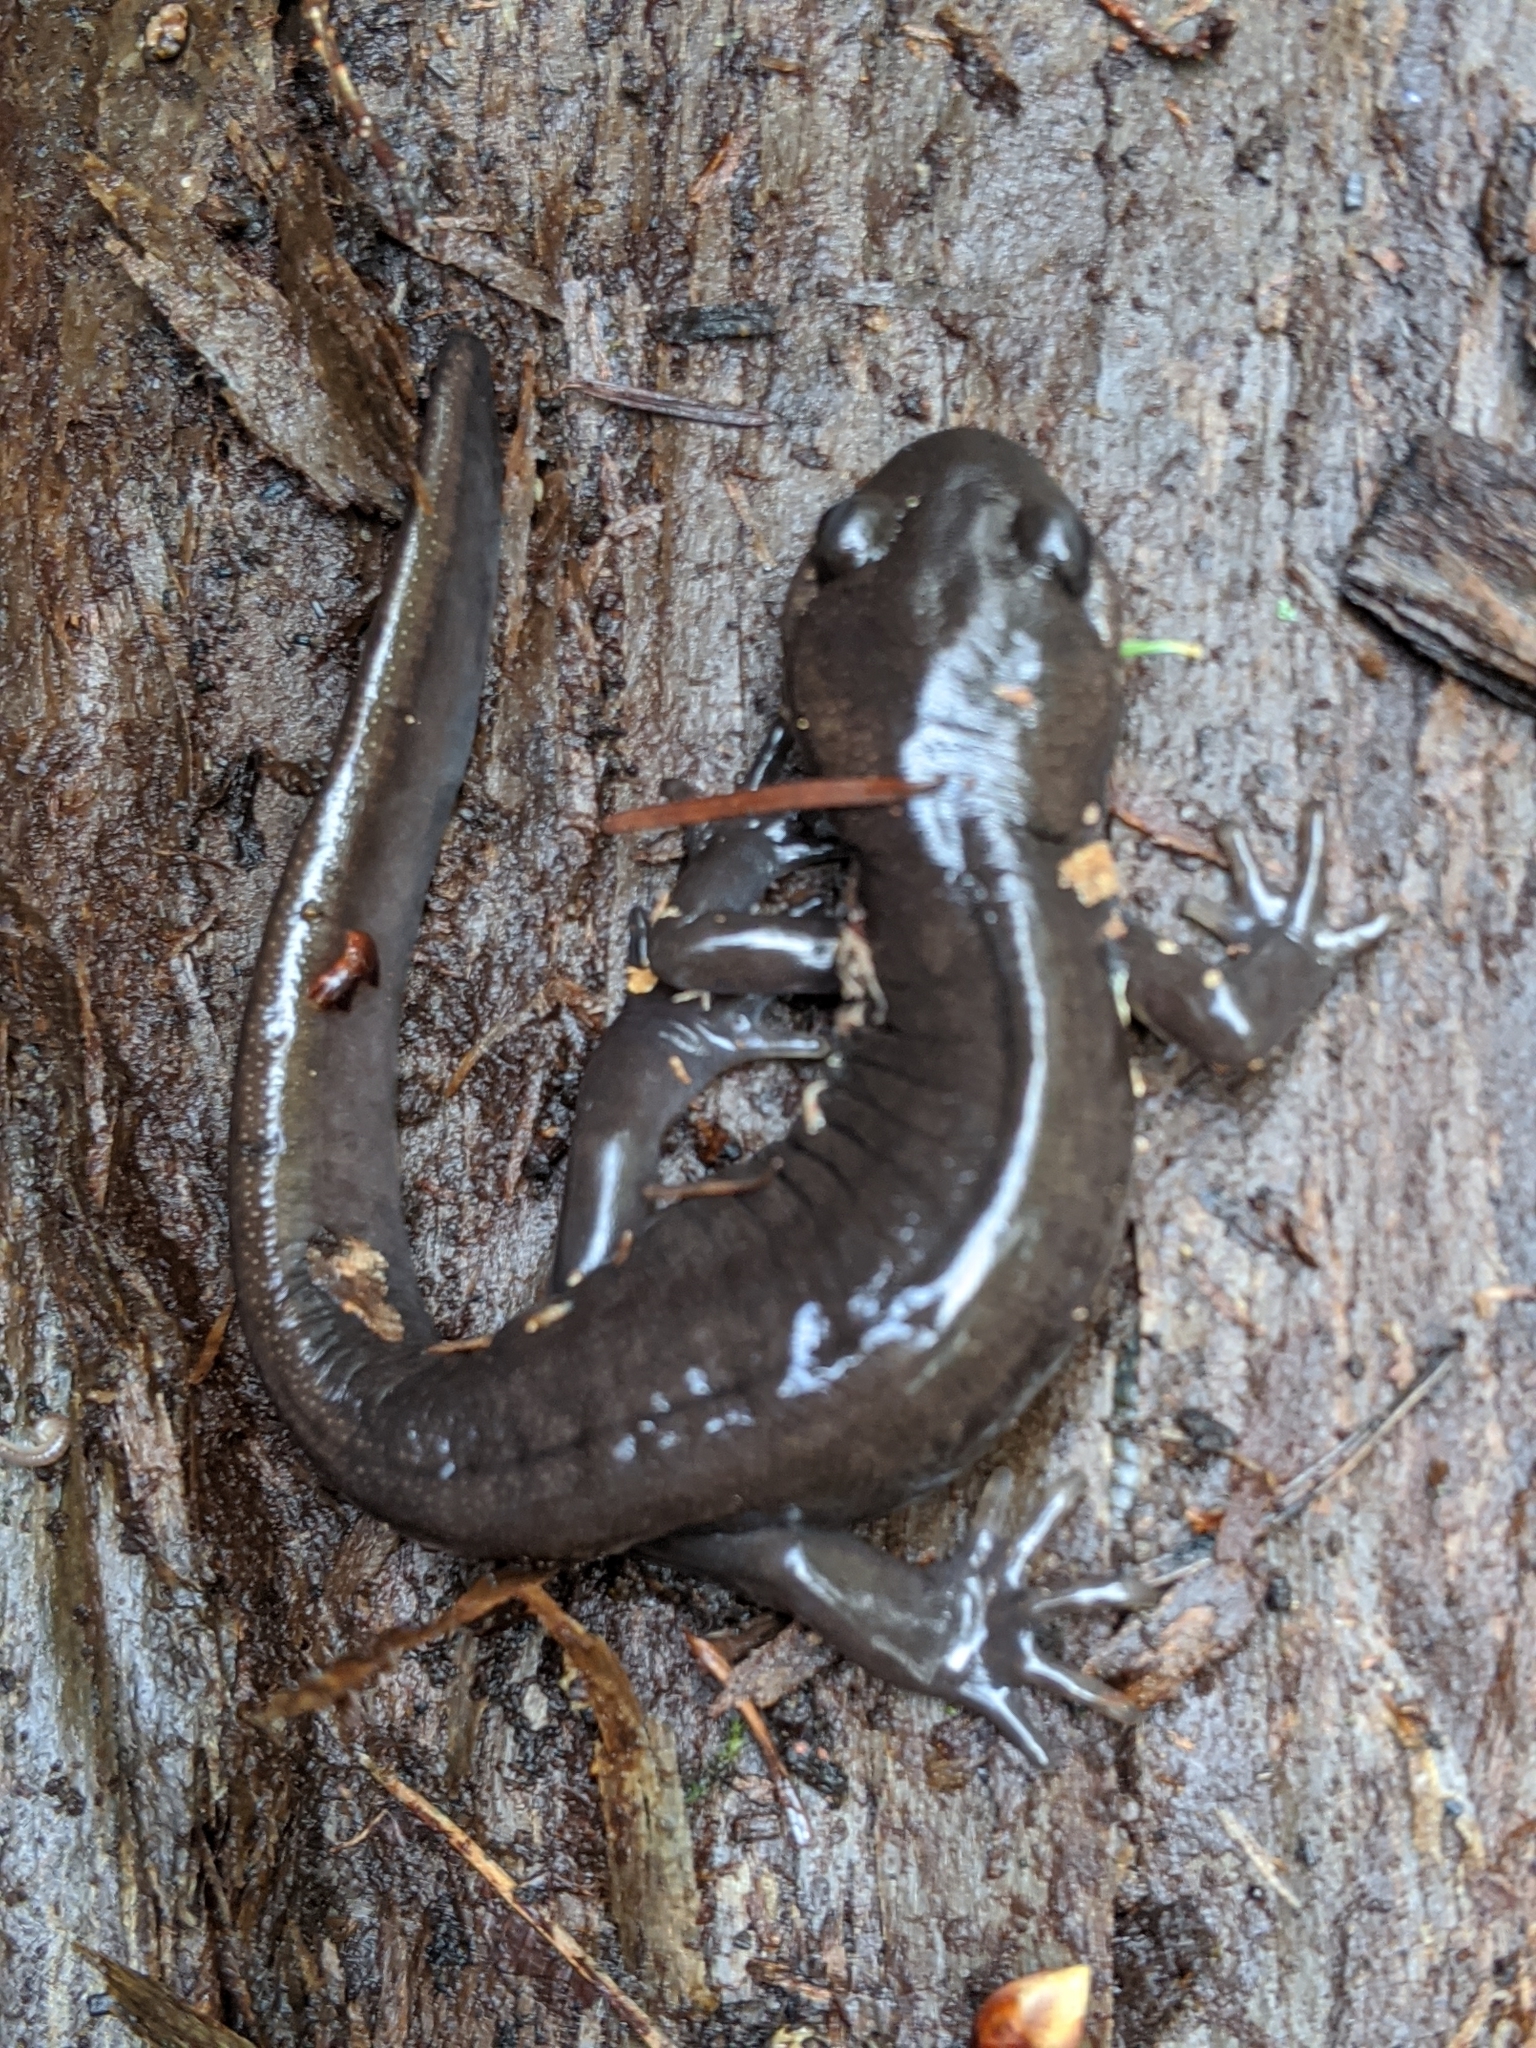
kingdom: Animalia
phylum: Chordata
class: Amphibia
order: Caudata
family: Ambystomatidae
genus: Ambystoma
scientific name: Ambystoma gracile
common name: Northwestern salamander
